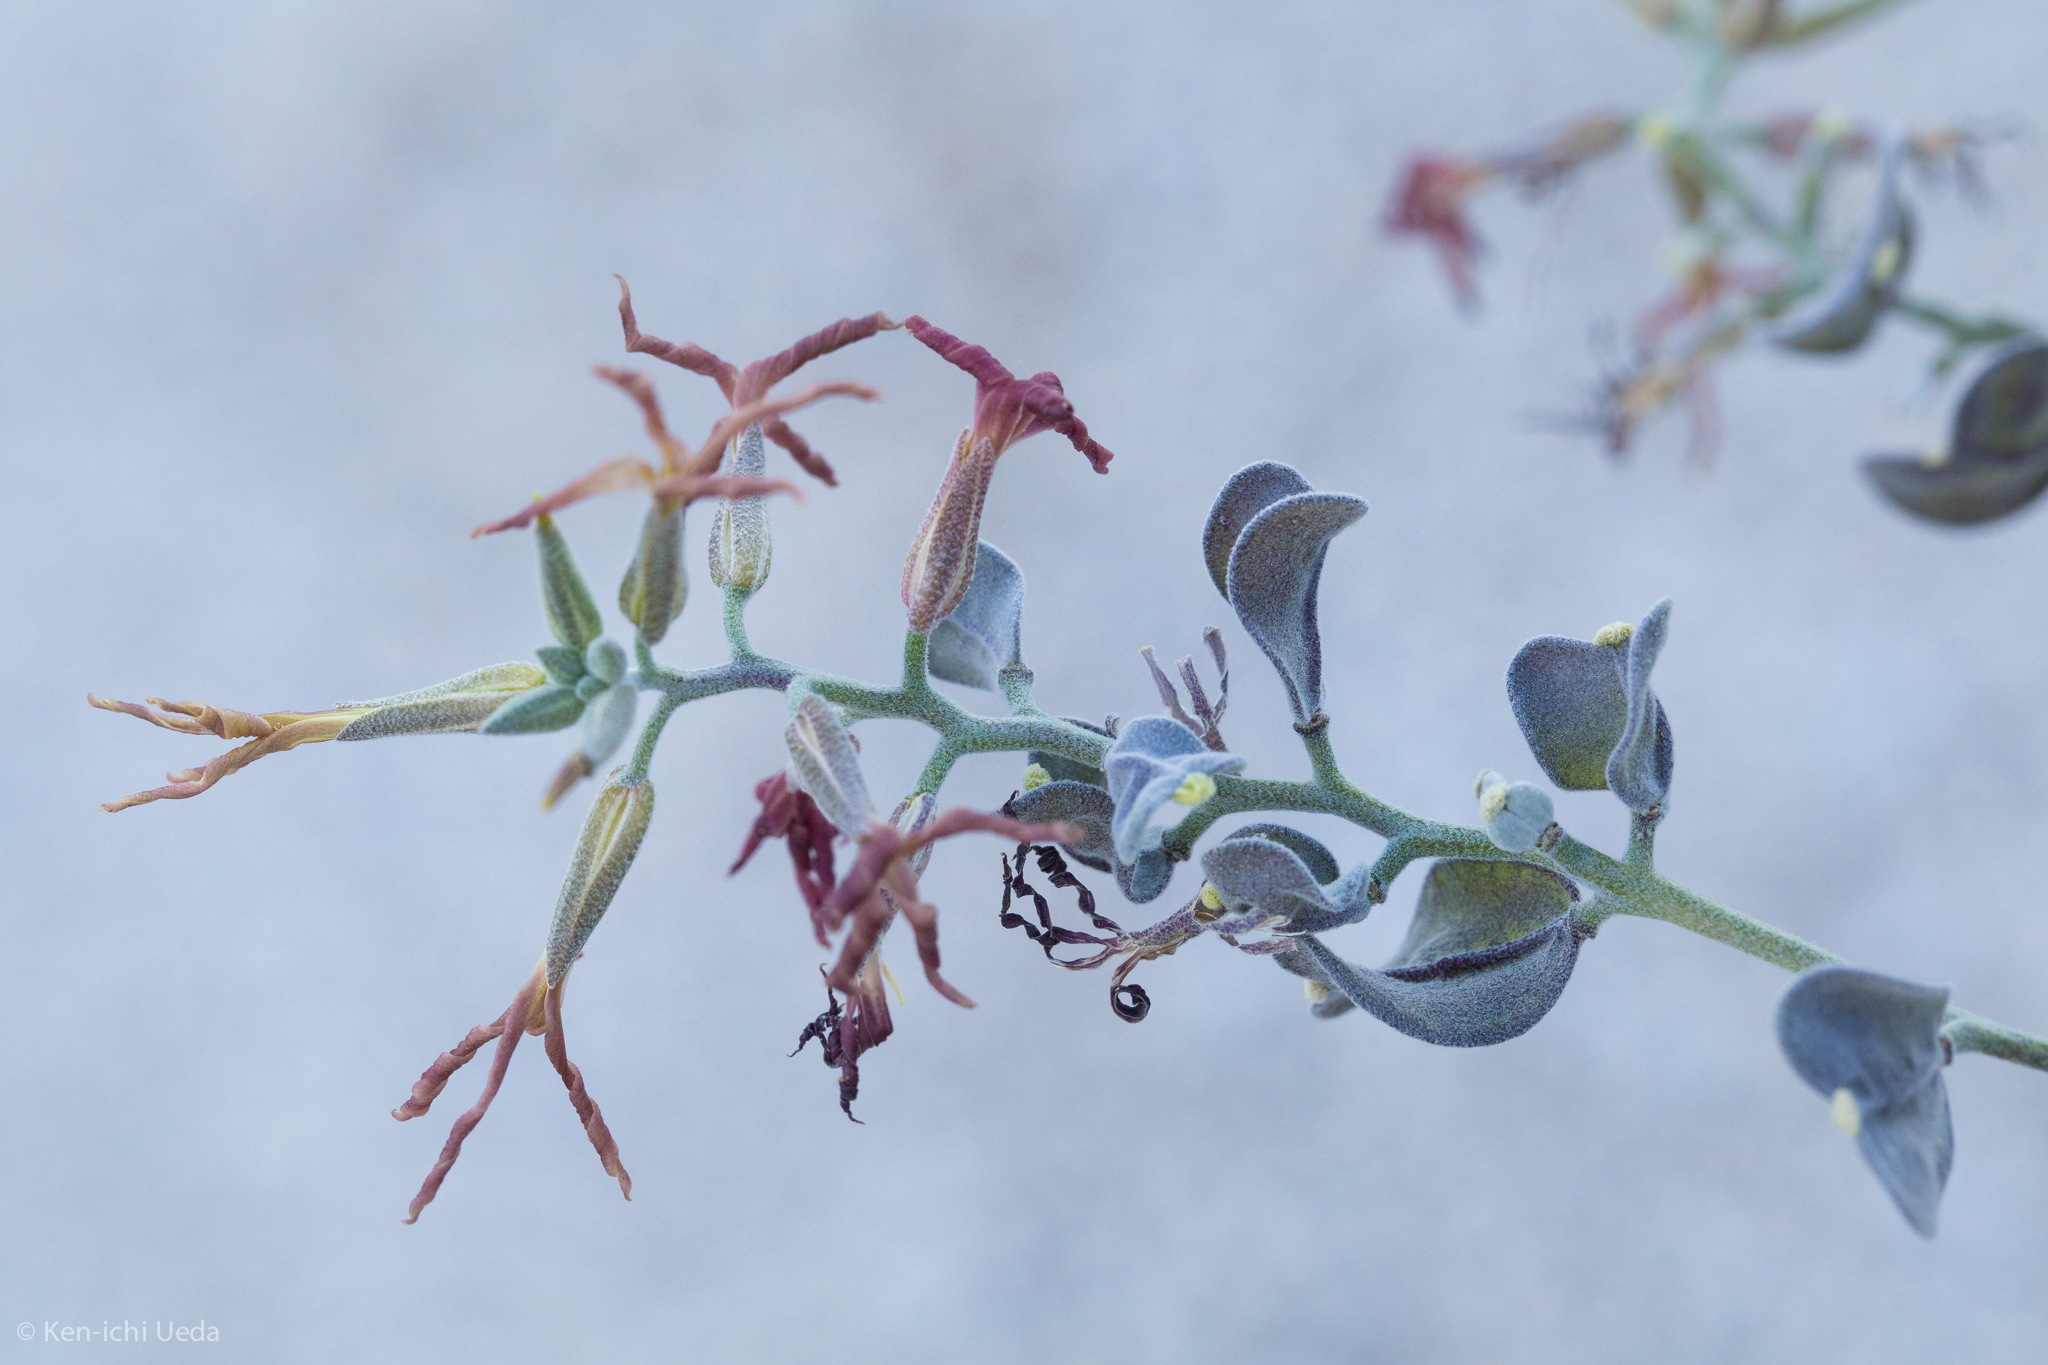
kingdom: Plantae
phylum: Tracheophyta
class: Magnoliopsida
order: Brassicales
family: Brassicaceae
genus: Lyrocarpa
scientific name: Lyrocarpa coulteri
